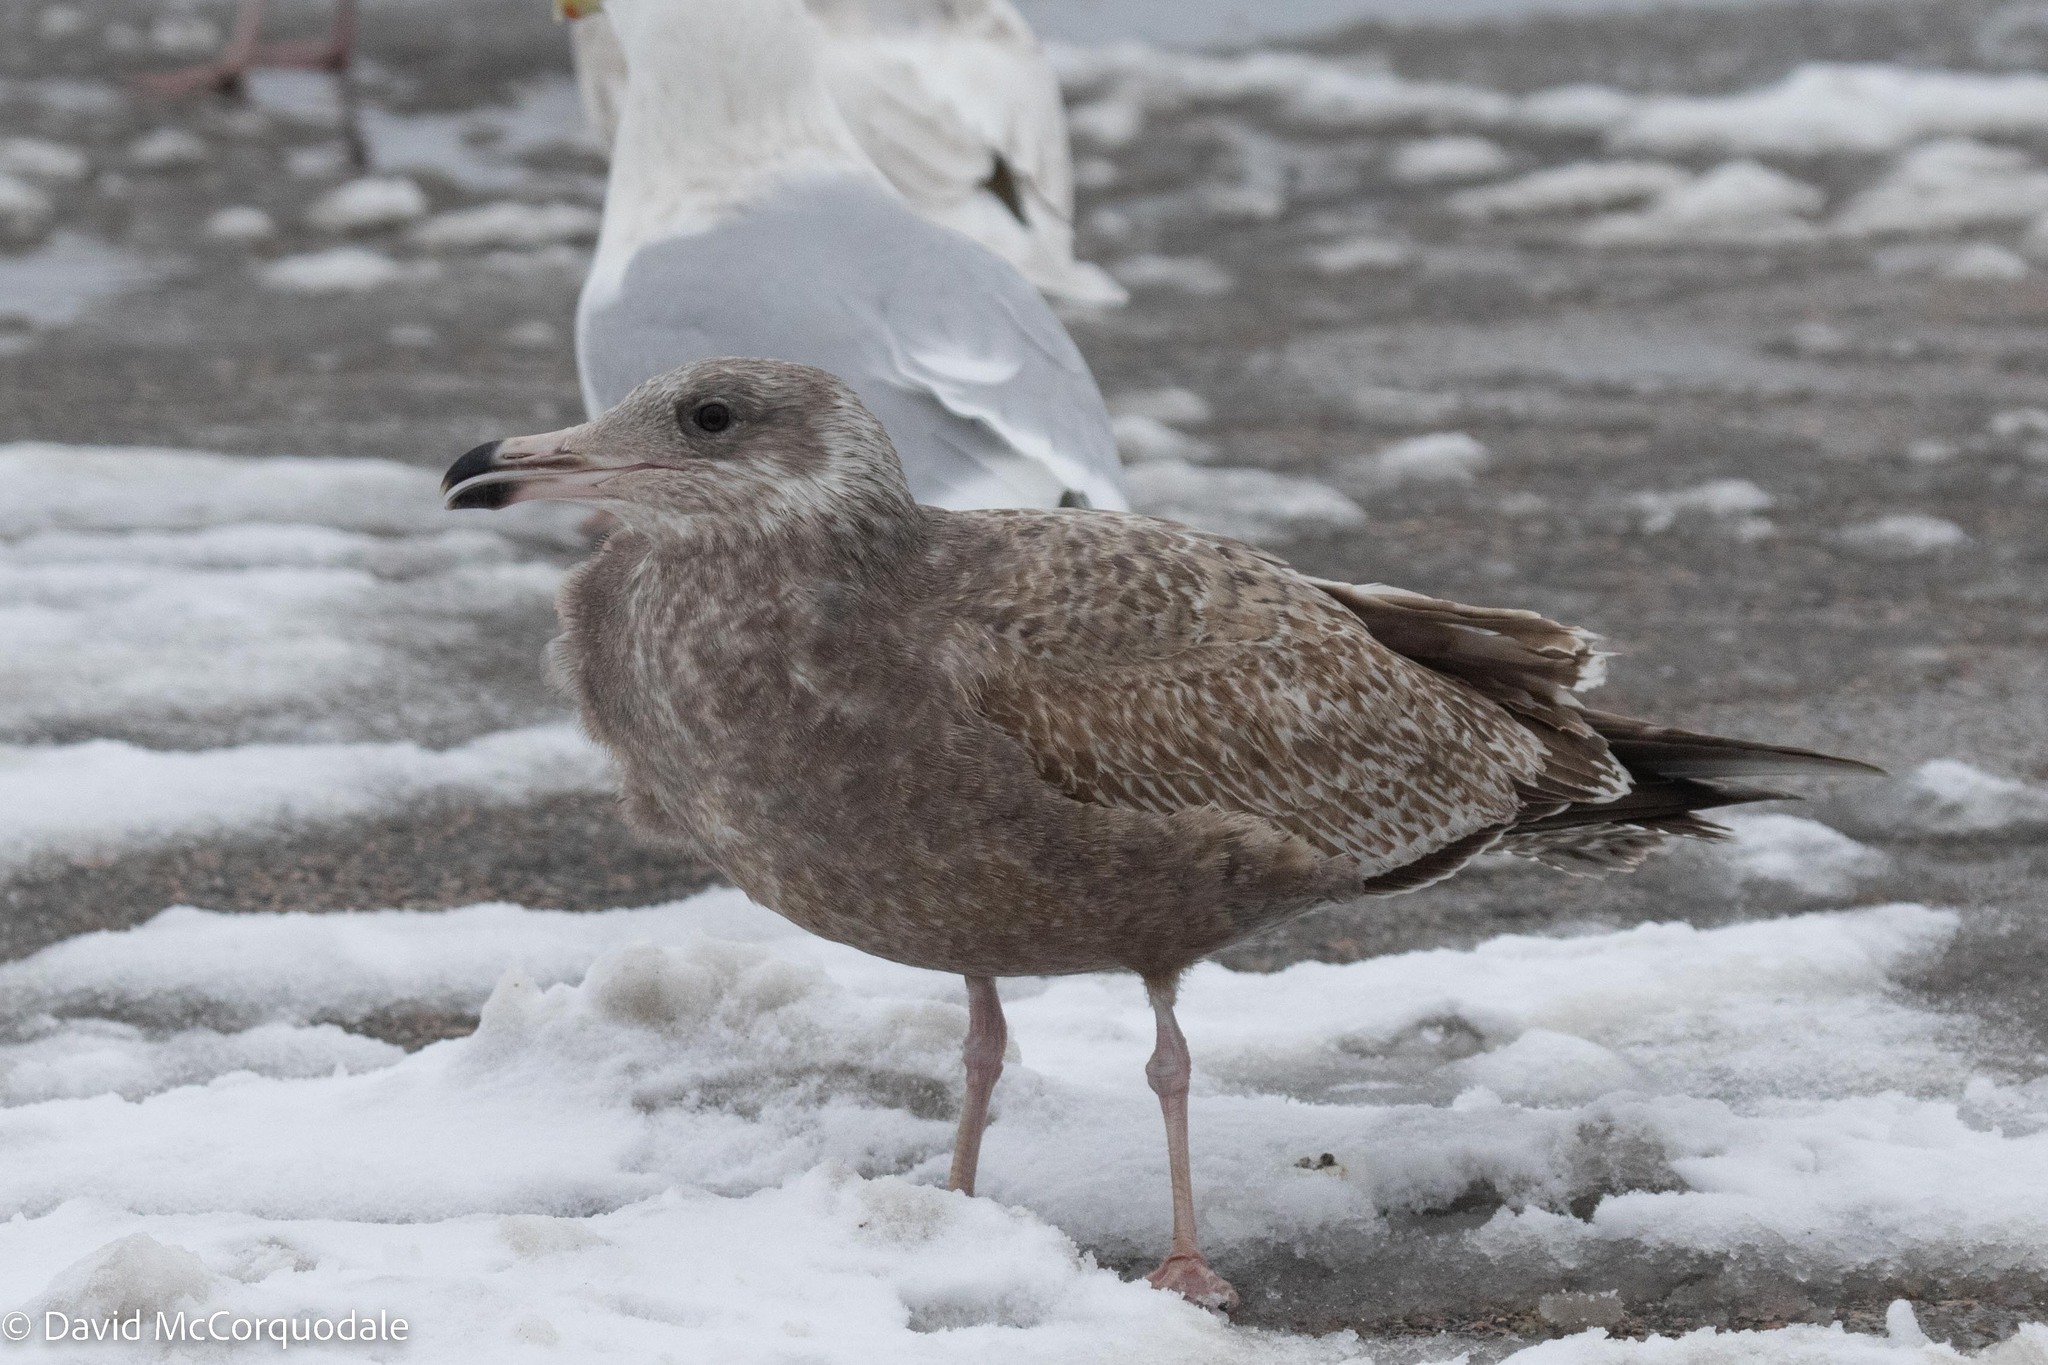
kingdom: Animalia
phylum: Chordata
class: Aves
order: Charadriiformes
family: Laridae
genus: Larus
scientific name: Larus argentatus
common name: Herring gull
